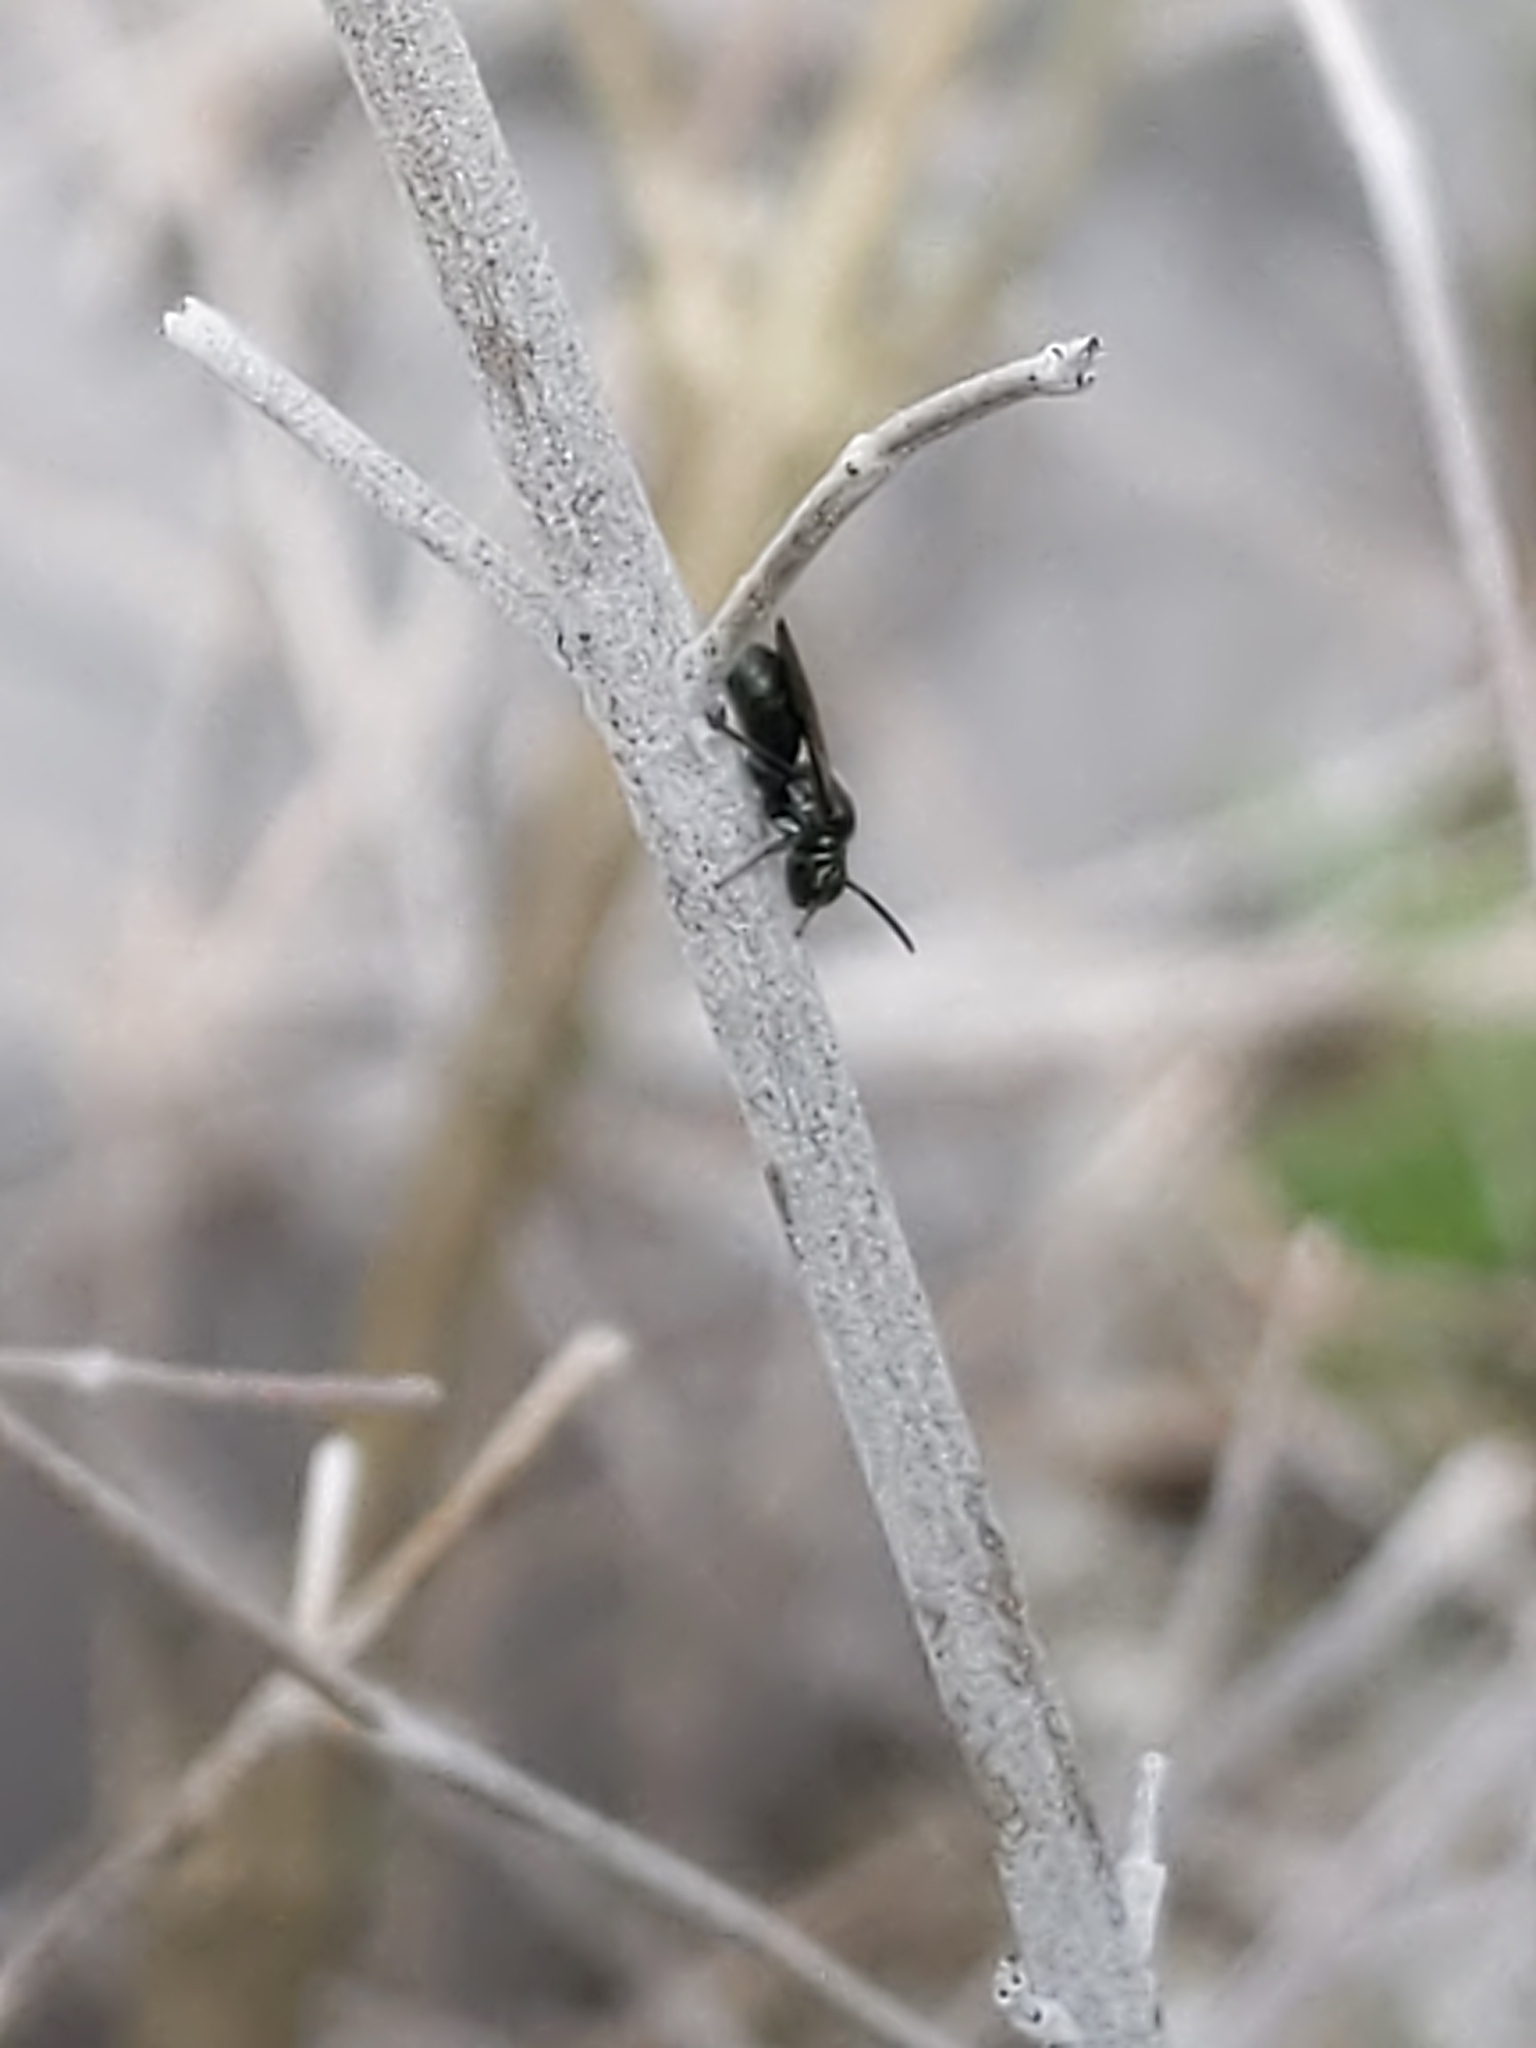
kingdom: Animalia
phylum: Arthropoda
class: Insecta
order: Hymenoptera
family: Apidae
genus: Zadontomerus
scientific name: Zadontomerus
